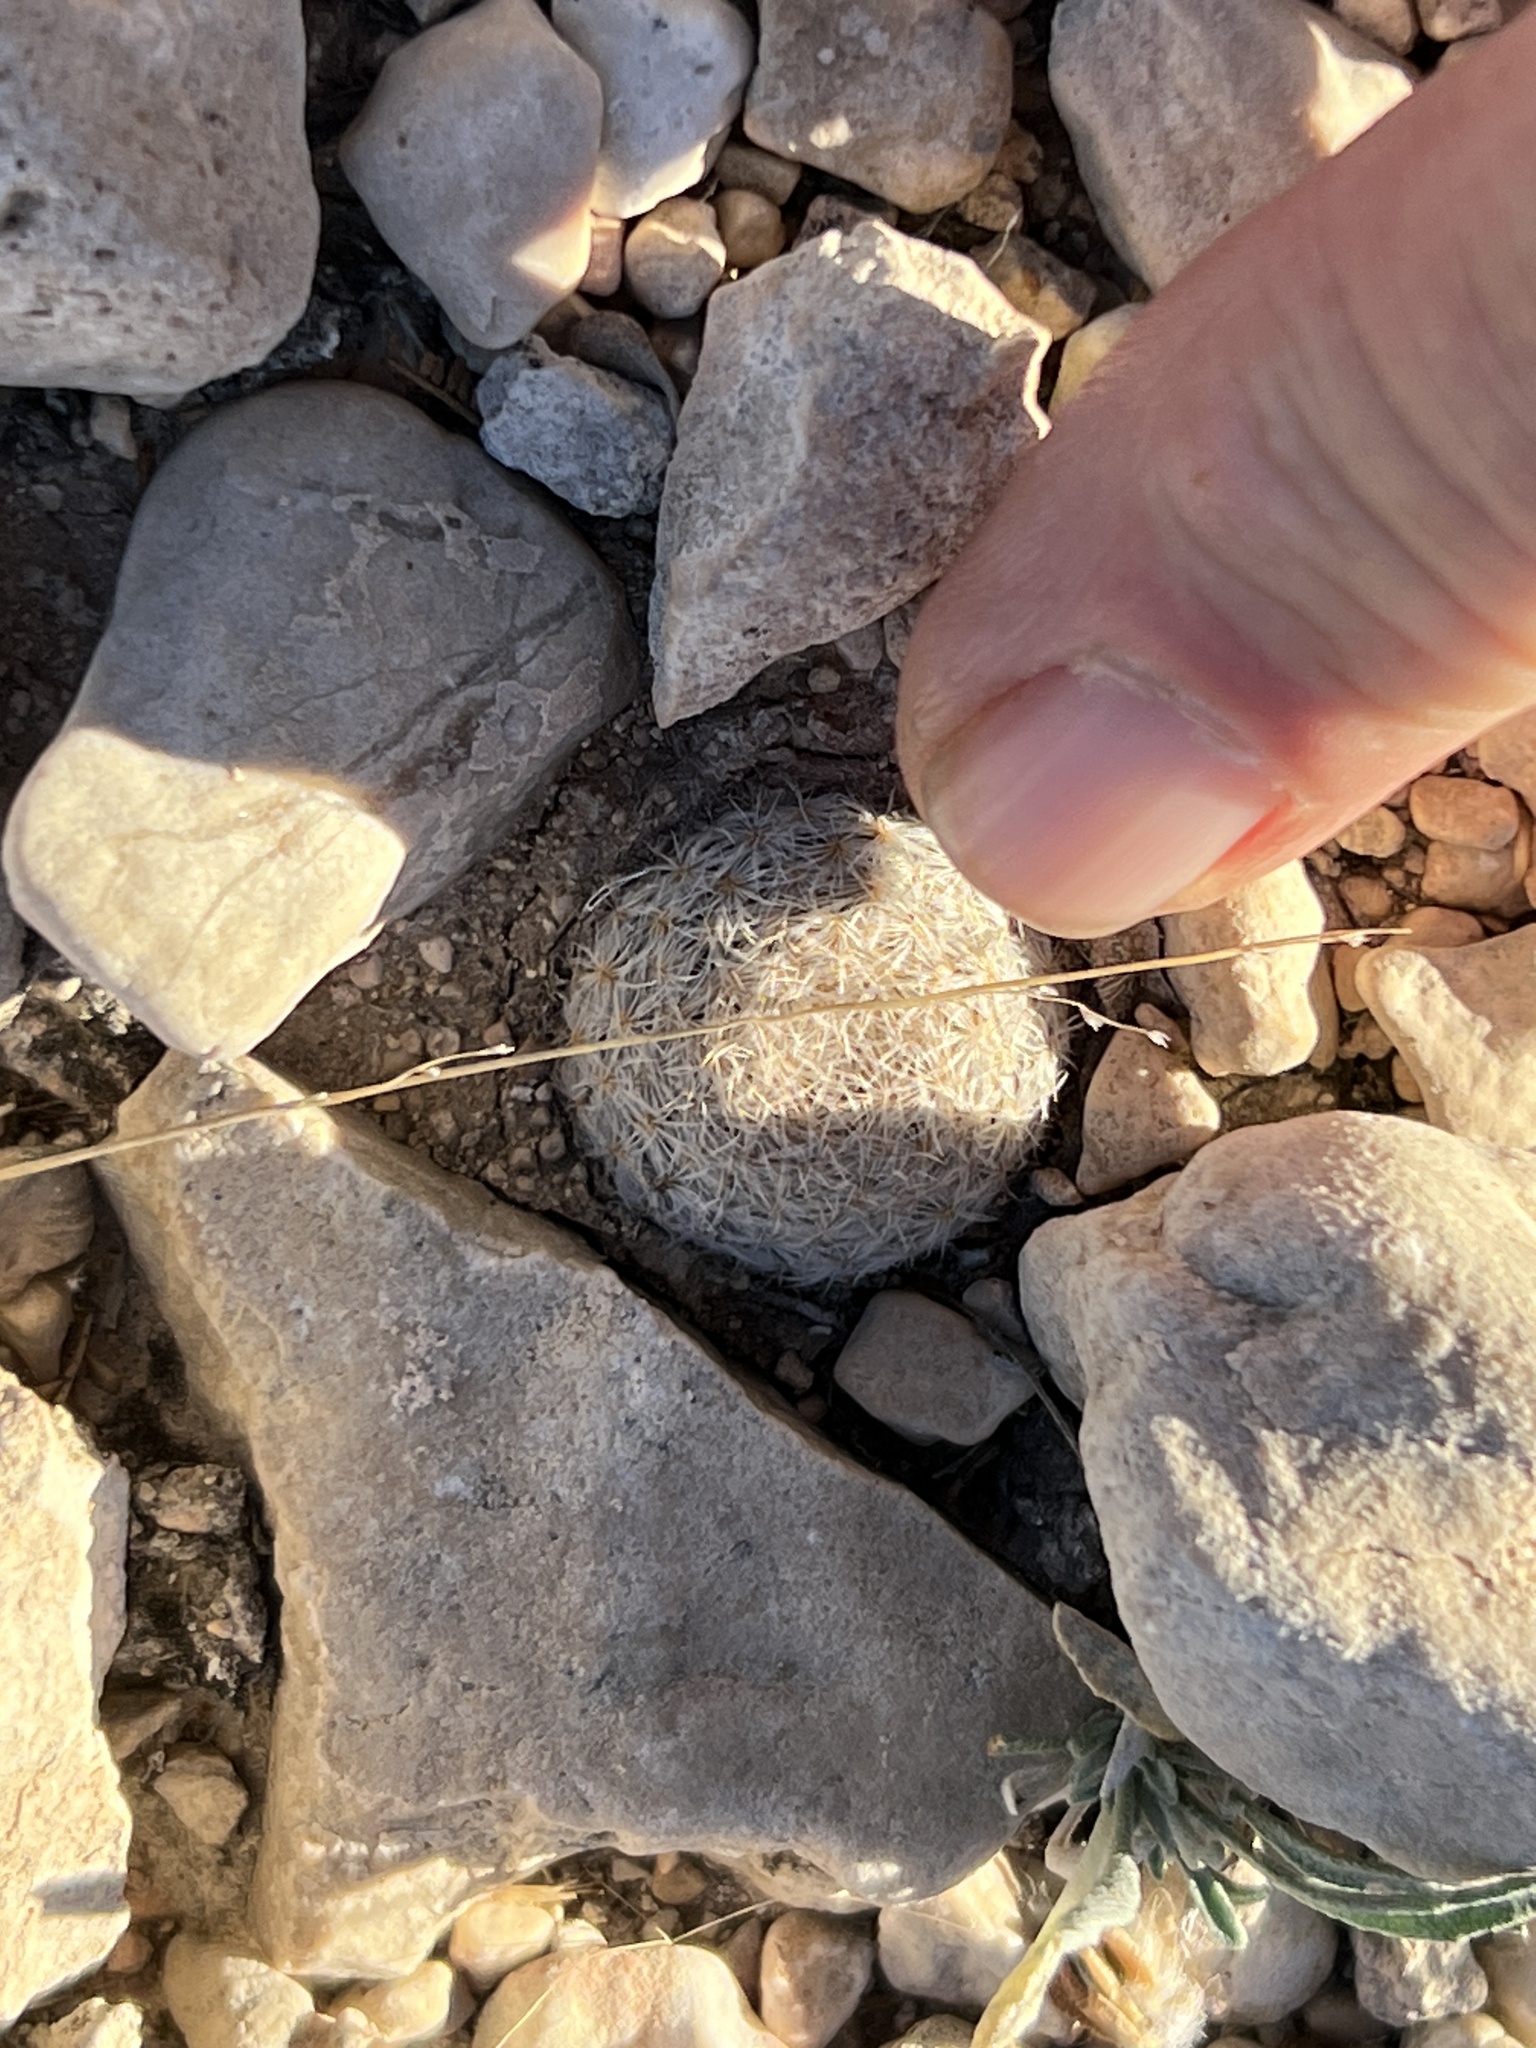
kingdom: Plantae
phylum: Tracheophyta
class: Magnoliopsida
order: Caryophyllales
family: Cactaceae
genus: Mammillaria
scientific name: Mammillaria lasiacantha
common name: Lace-spine nipple cactus
